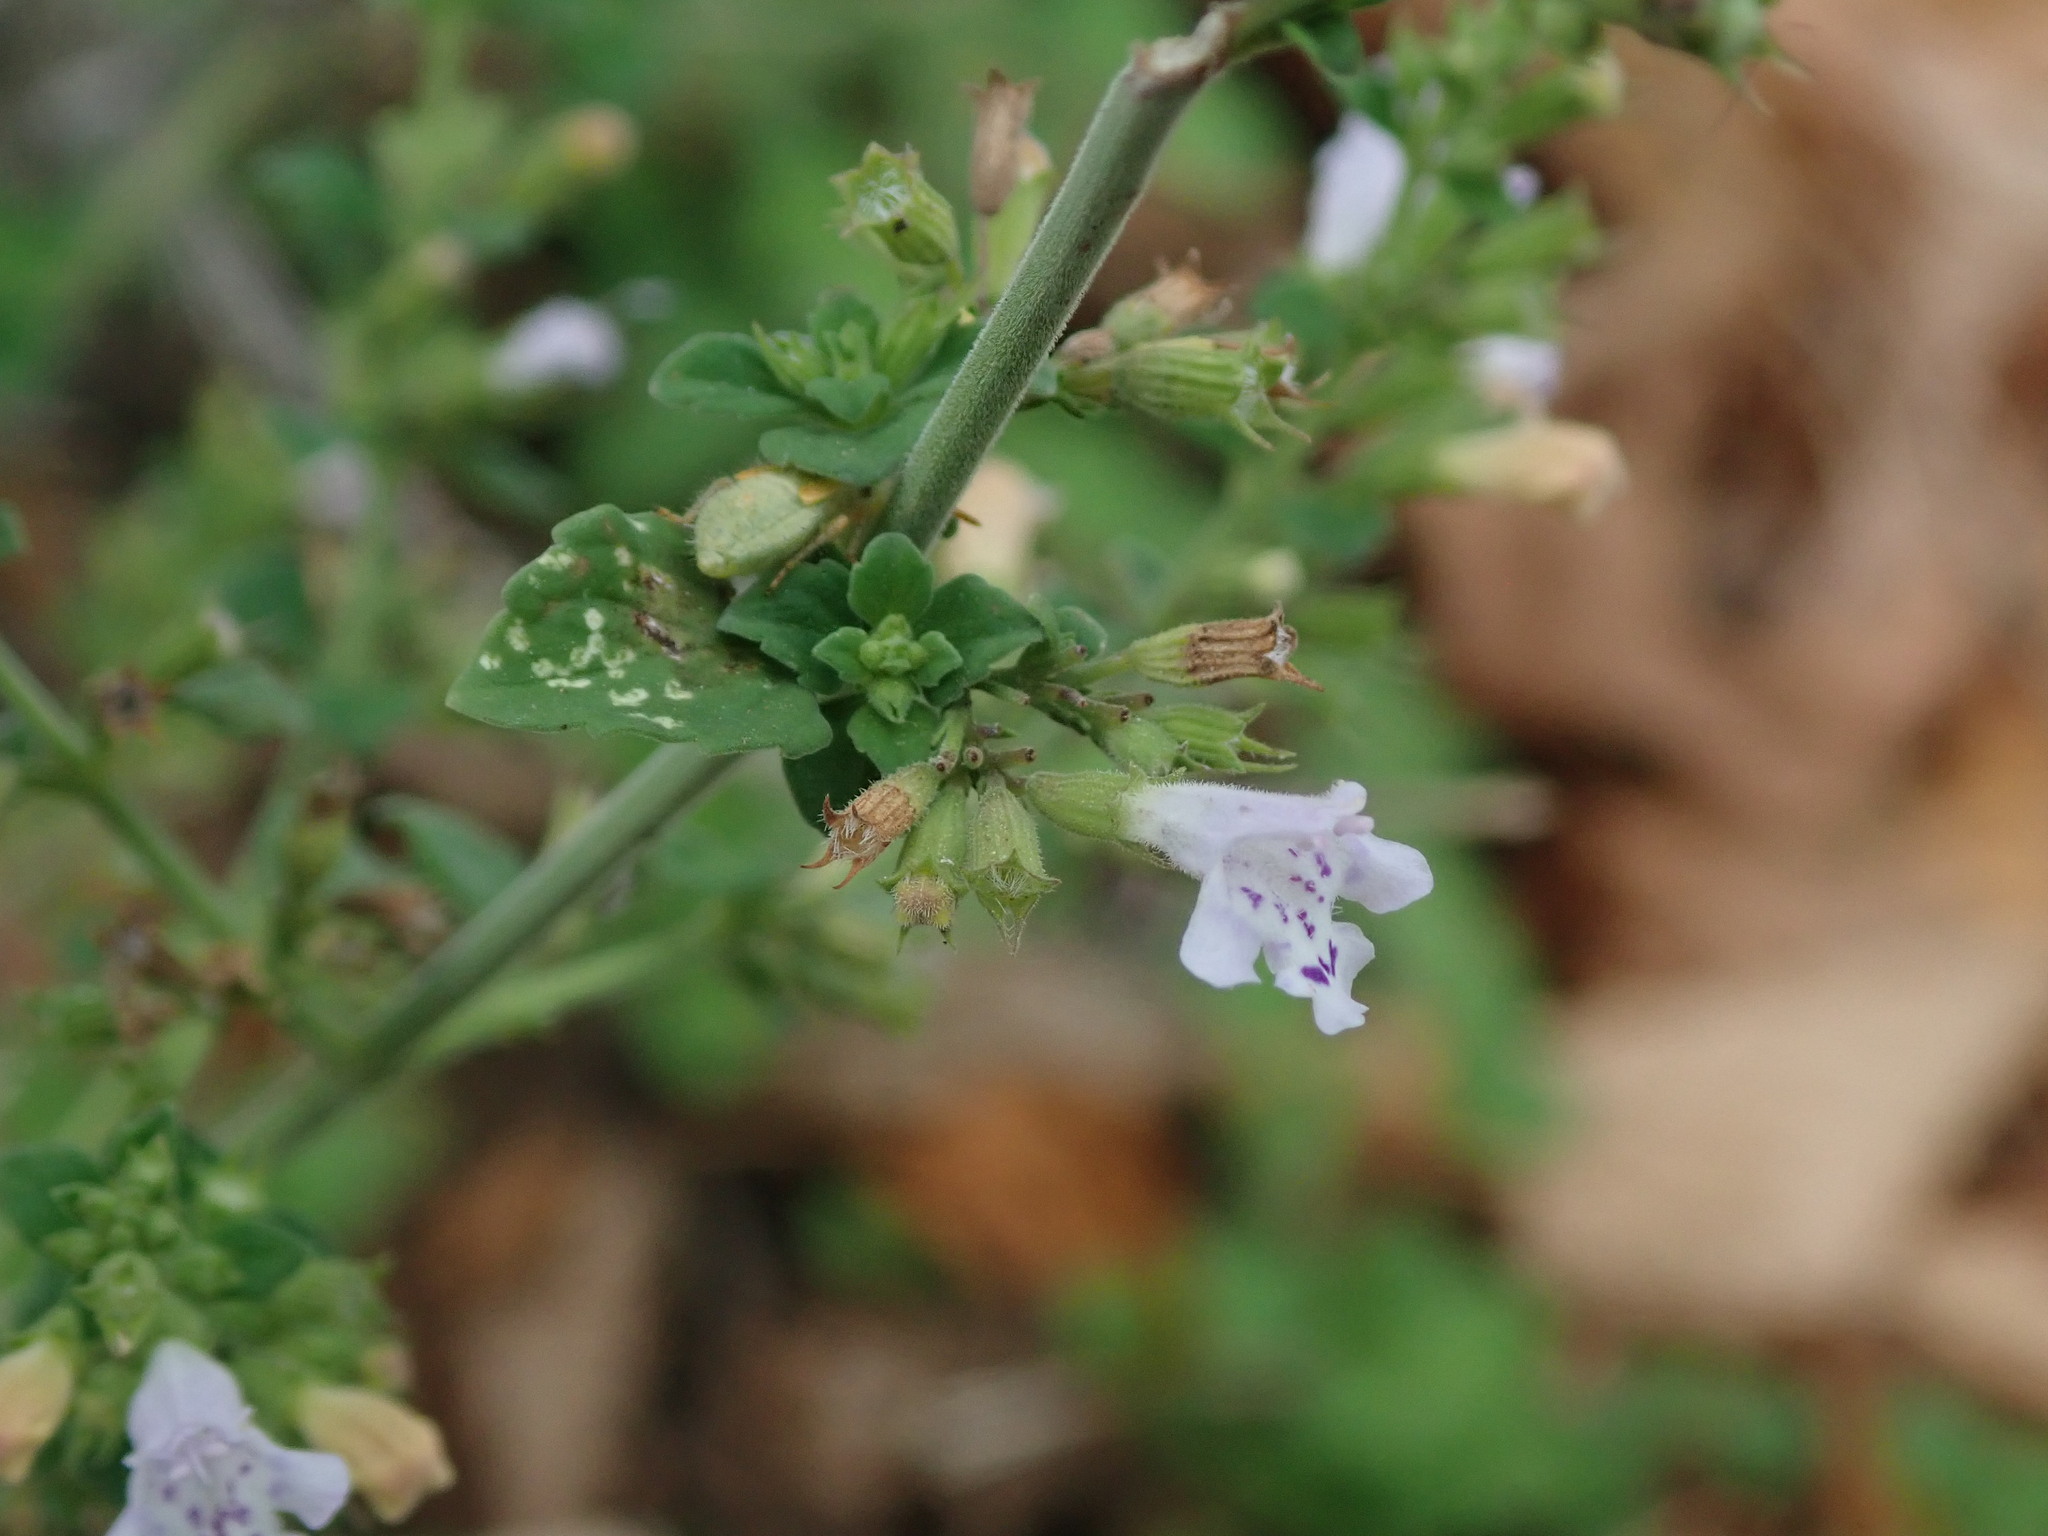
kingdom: Plantae
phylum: Tracheophyta
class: Magnoliopsida
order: Lamiales
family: Lamiaceae
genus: Clinopodium
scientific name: Clinopodium nepeta
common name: Lesser calamint
